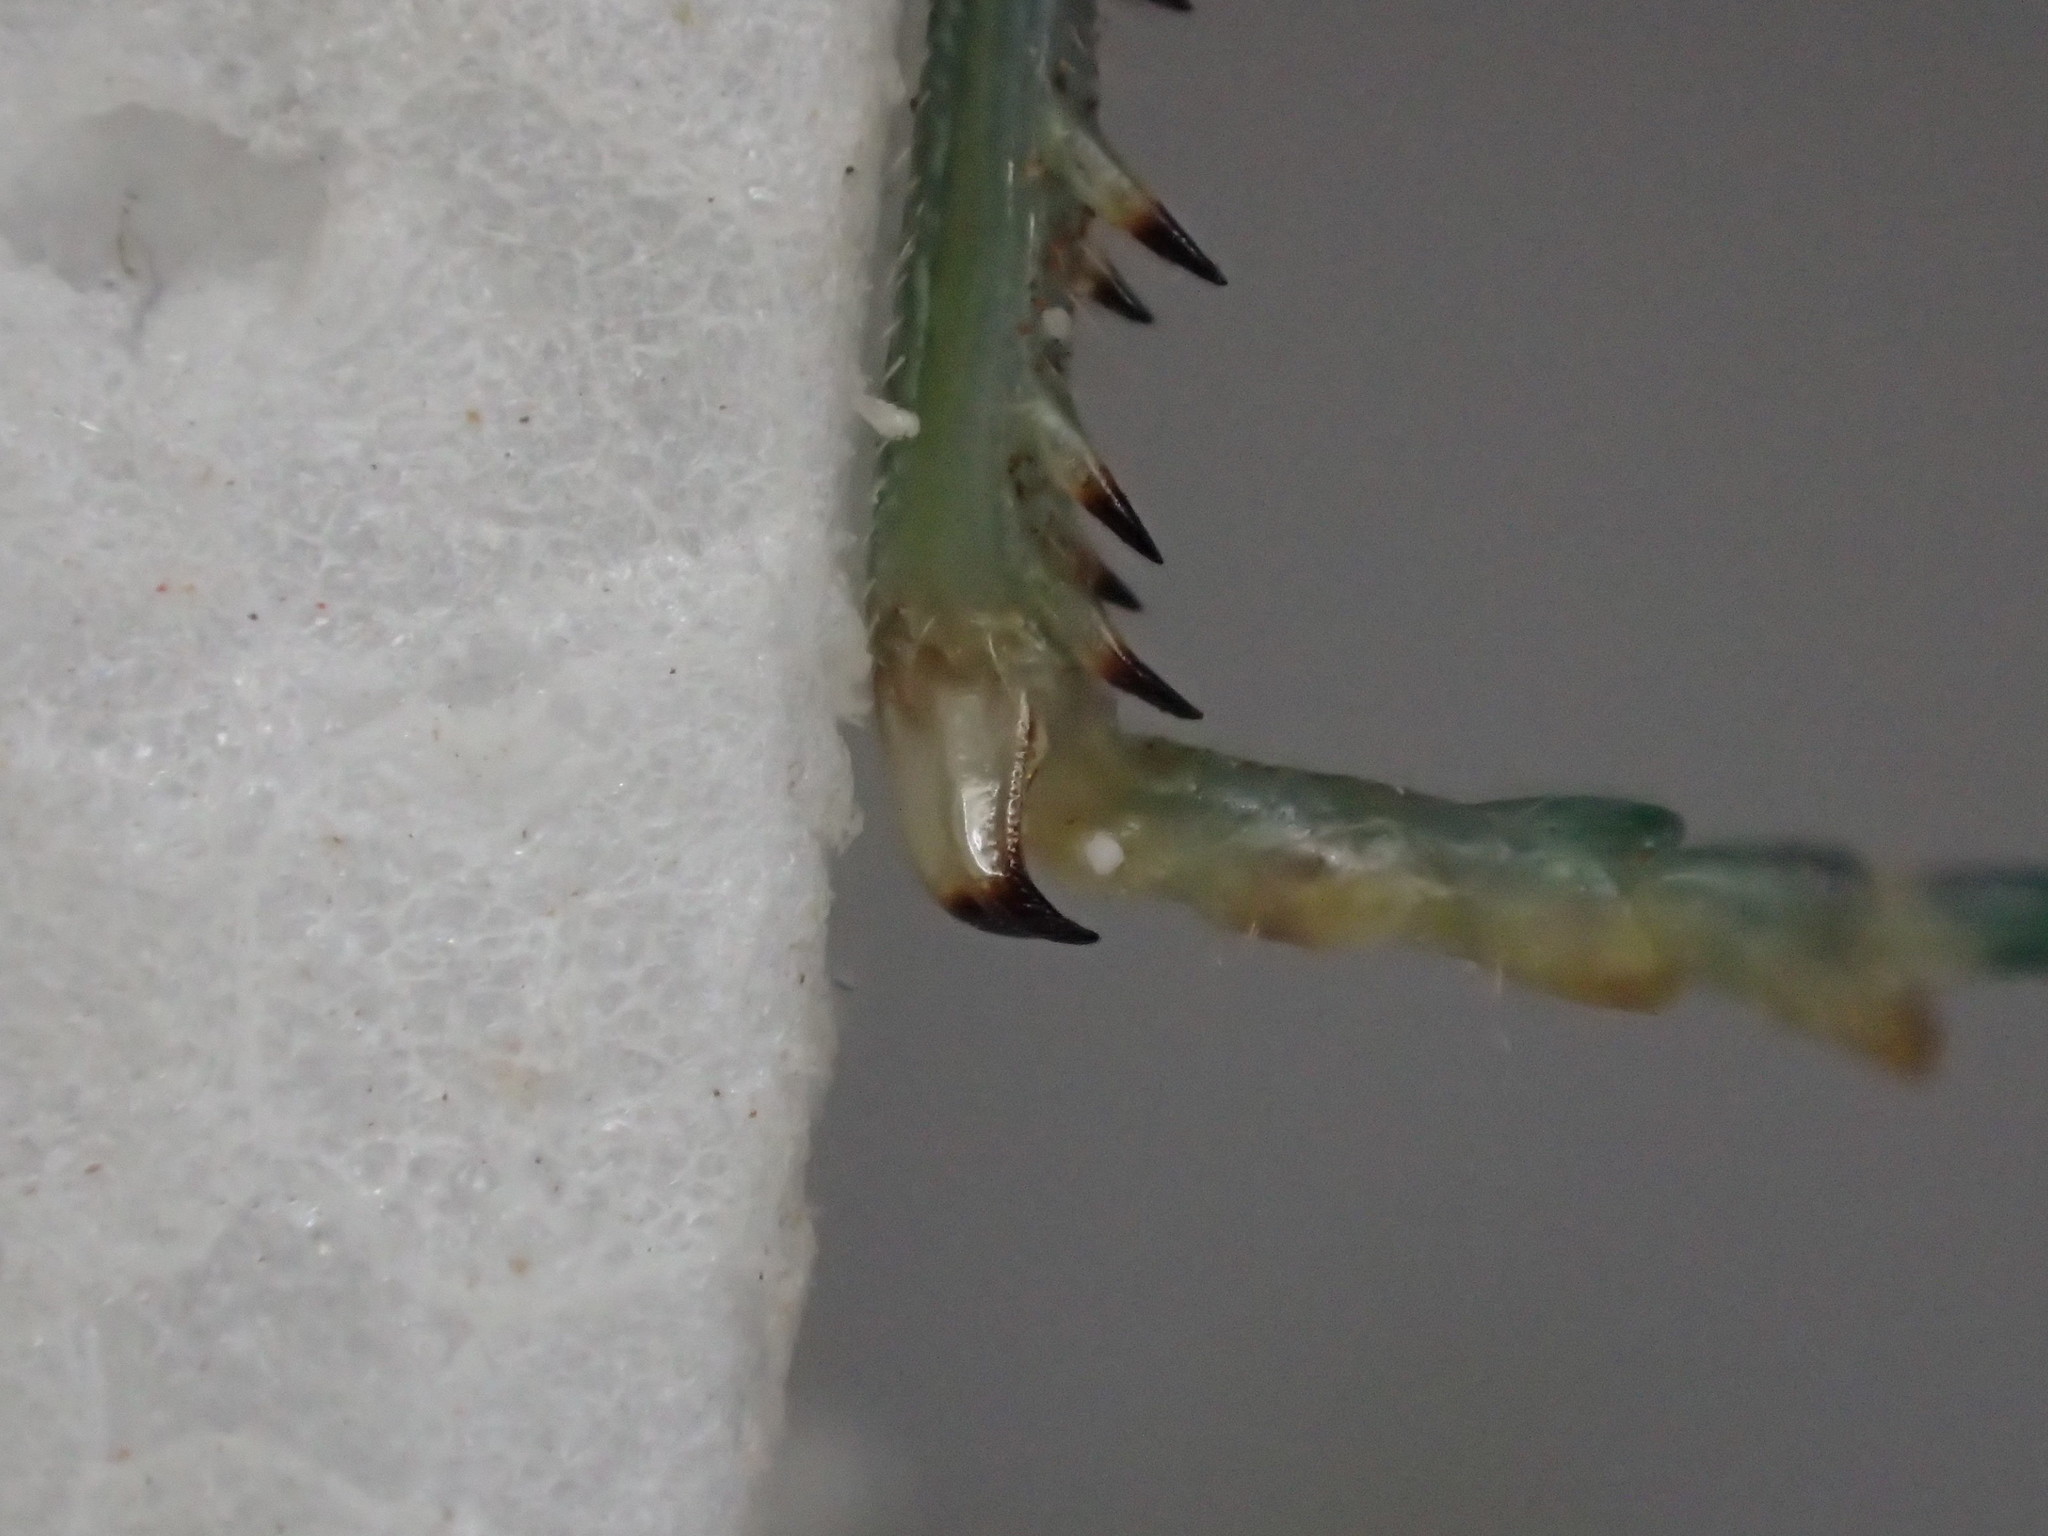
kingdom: Animalia
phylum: Arthropoda
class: Insecta
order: Orthoptera
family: Acrididae
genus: Bermius
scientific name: Bermius
